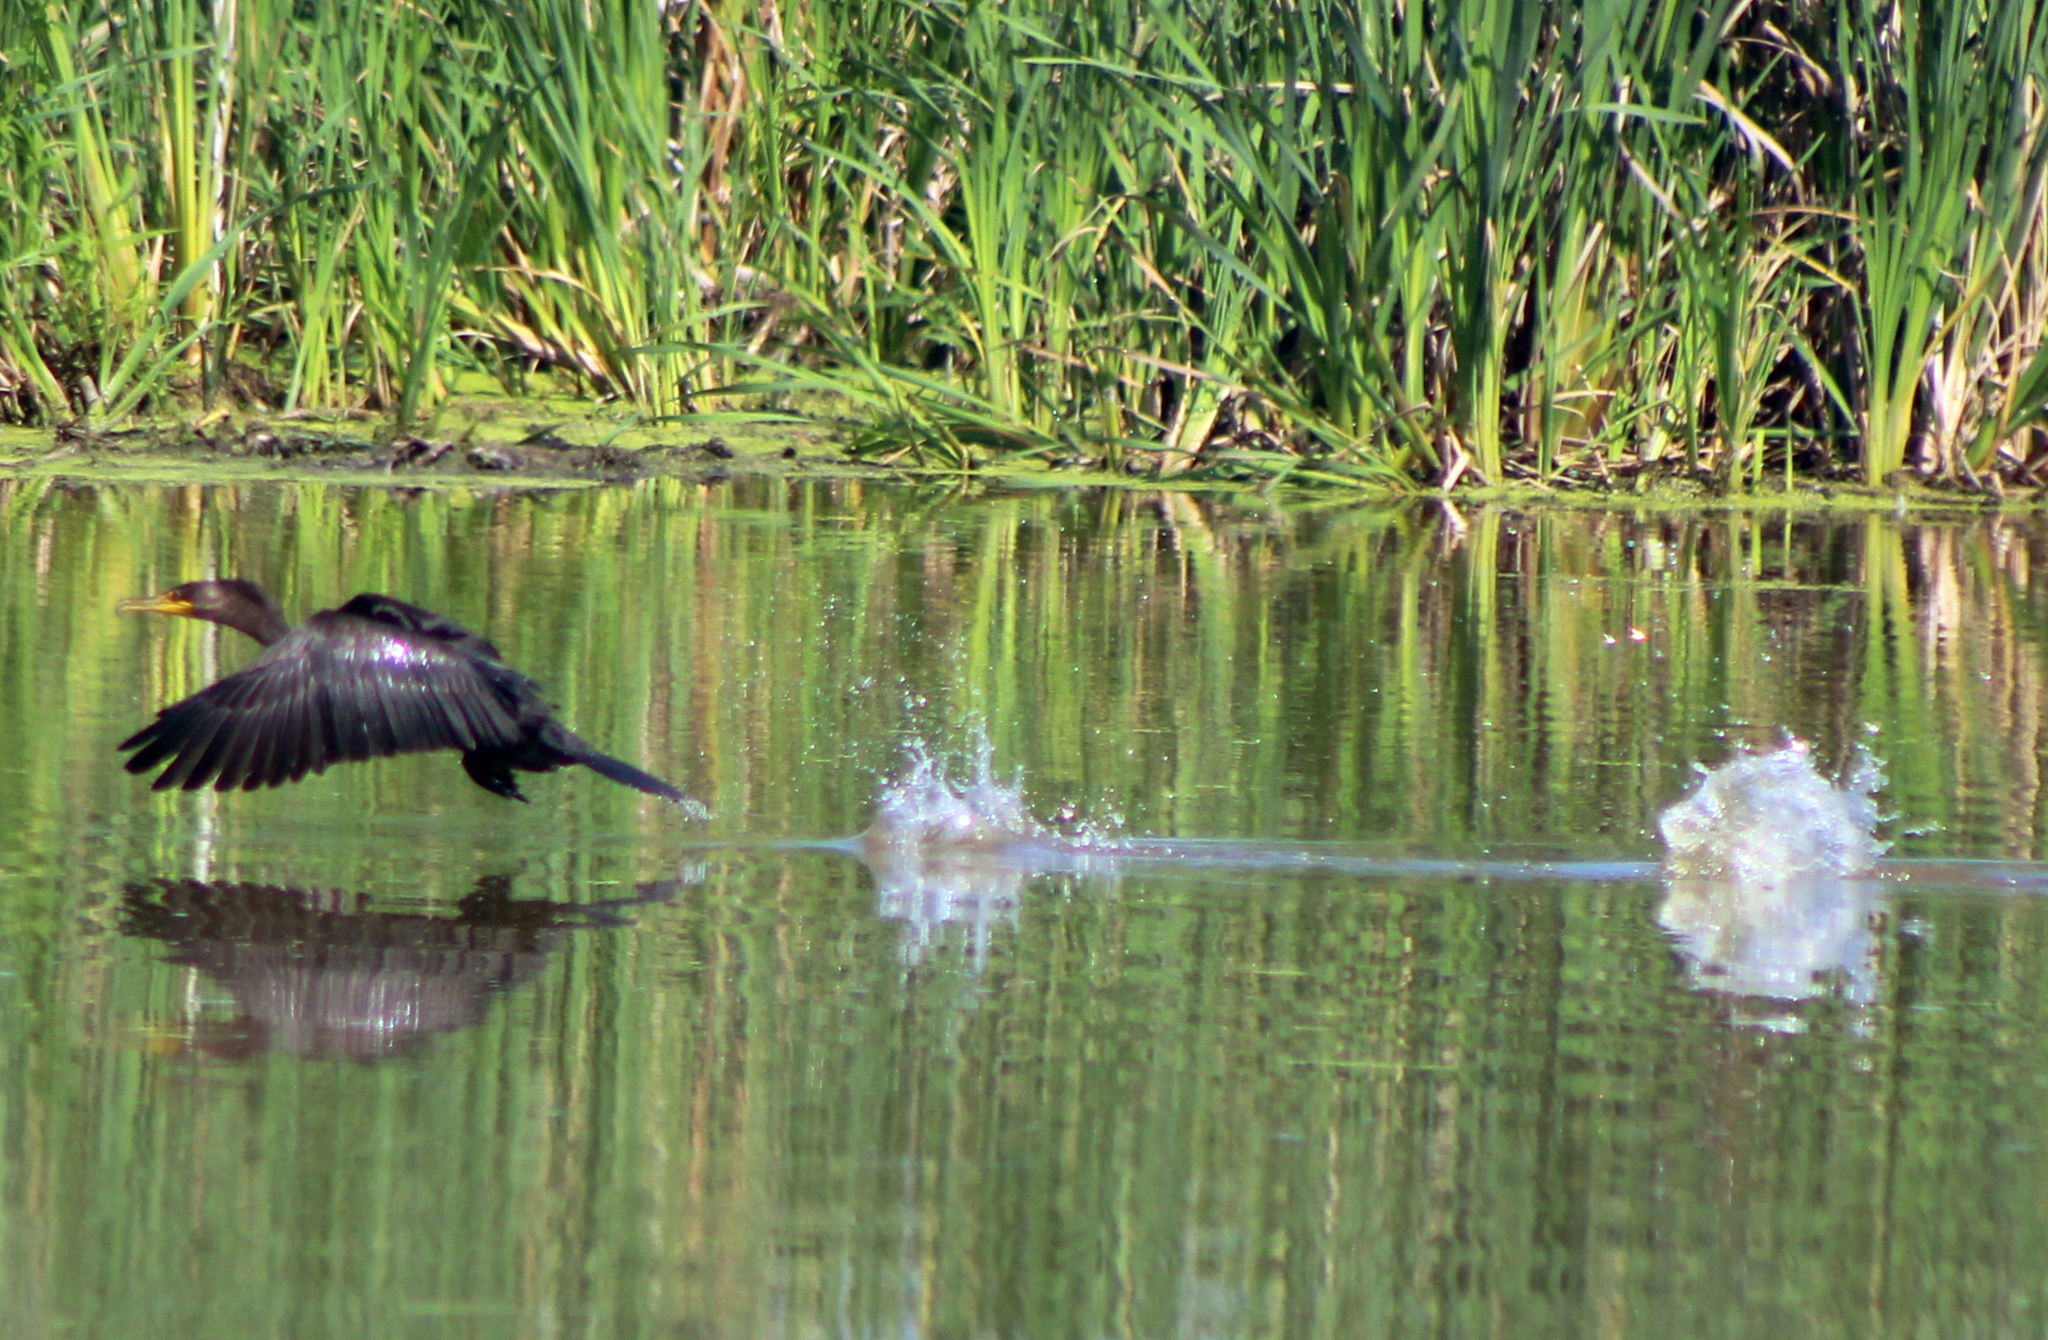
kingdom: Animalia
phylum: Chordata
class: Aves
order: Suliformes
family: Phalacrocoracidae
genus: Phalacrocorax
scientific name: Phalacrocorax auritus
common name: Double-crested cormorant
